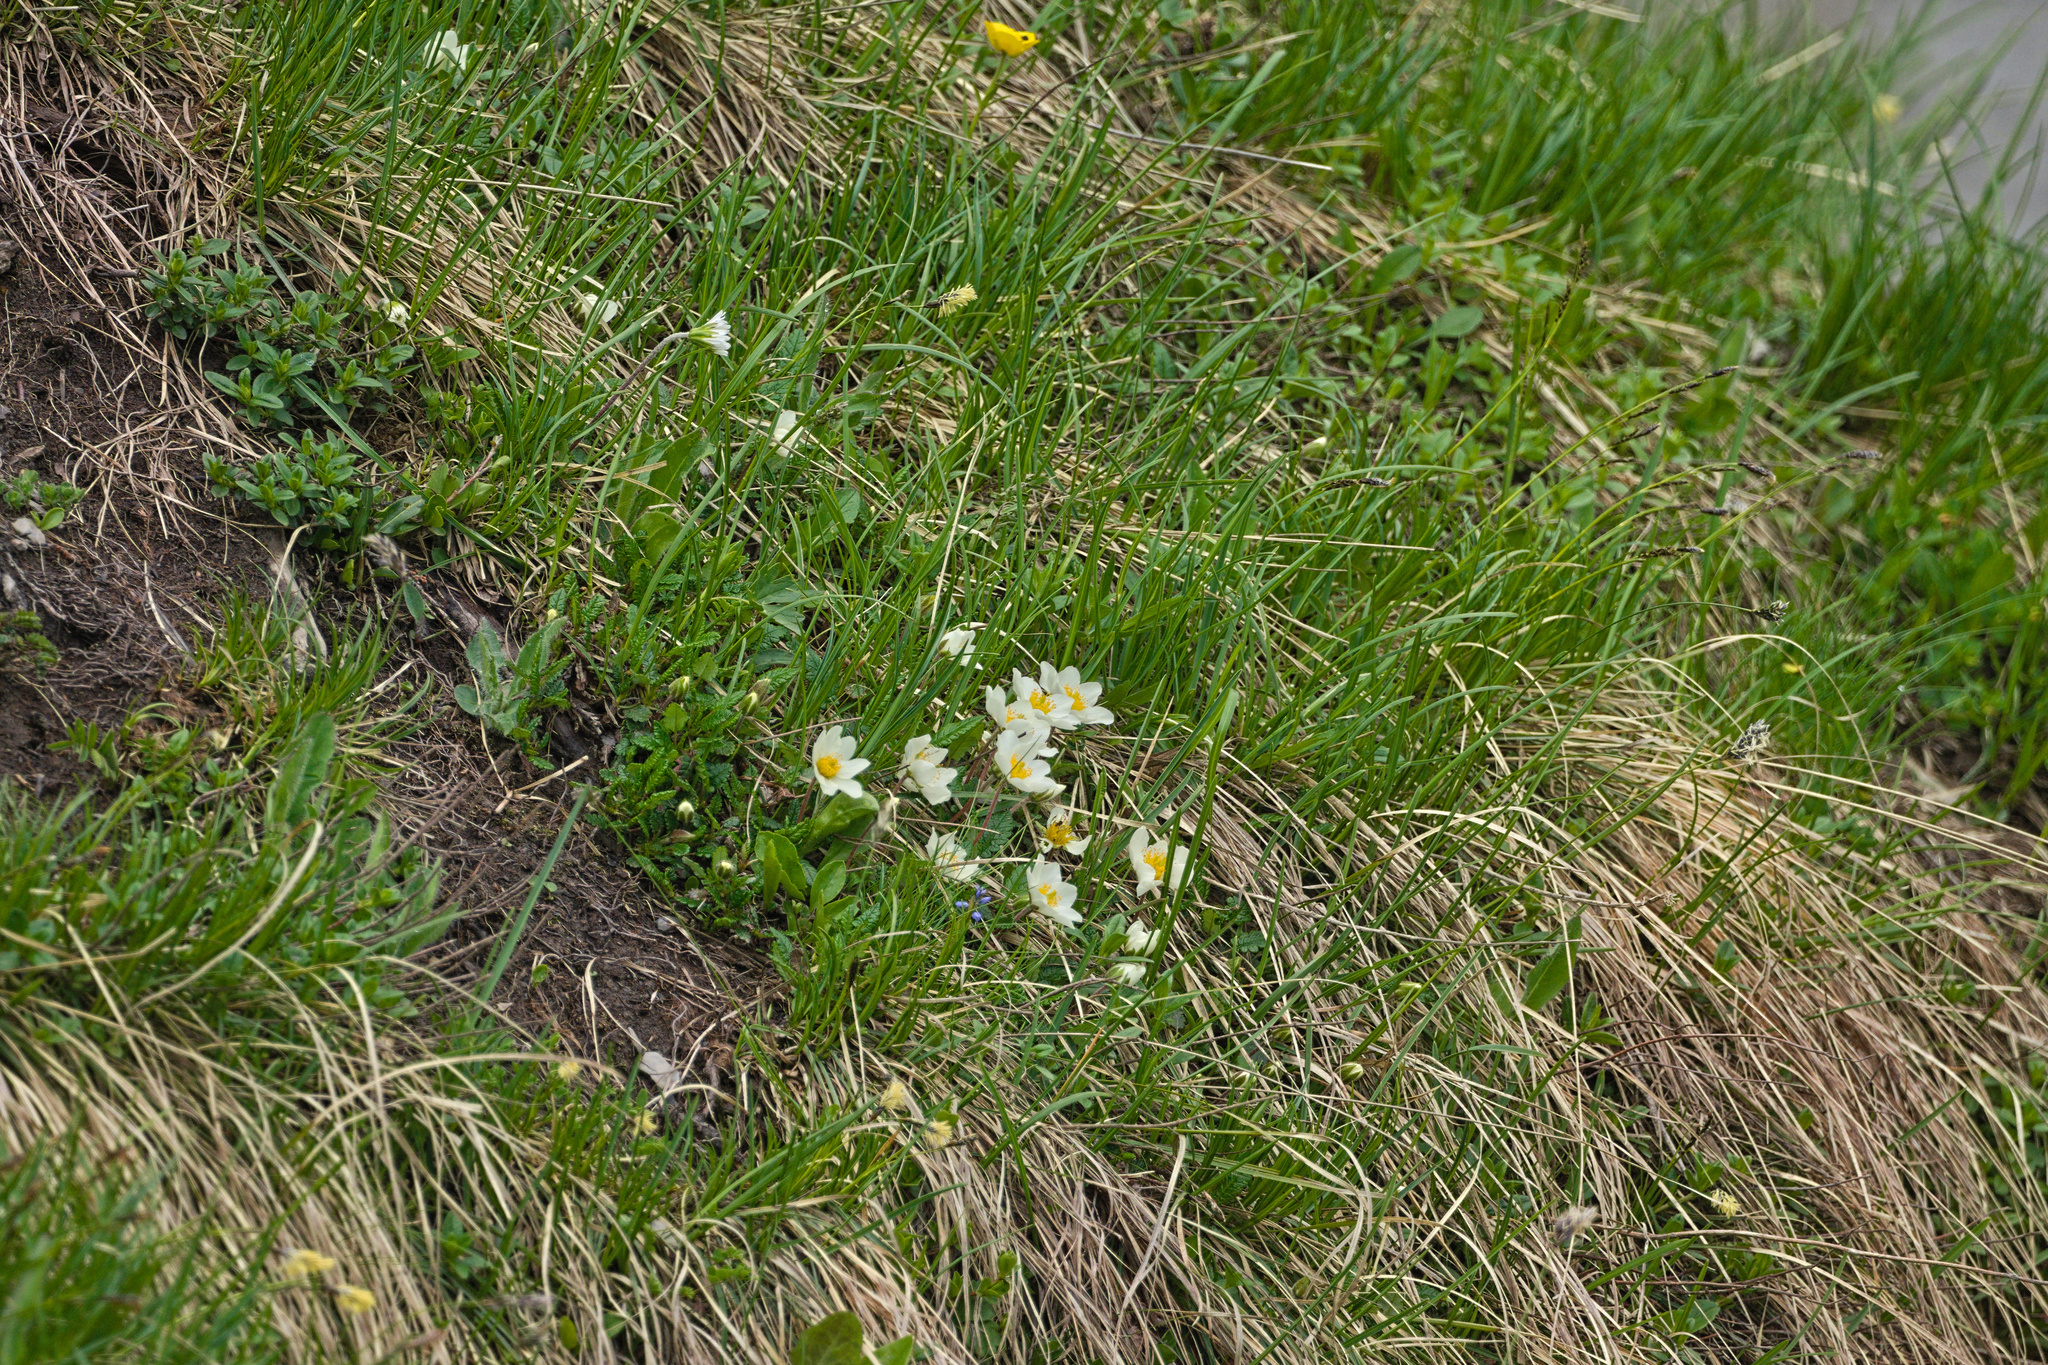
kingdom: Plantae
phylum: Tracheophyta
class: Magnoliopsida
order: Rosales
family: Rosaceae
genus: Dryas
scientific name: Dryas octopetala
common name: Eight-petal mountain-avens
